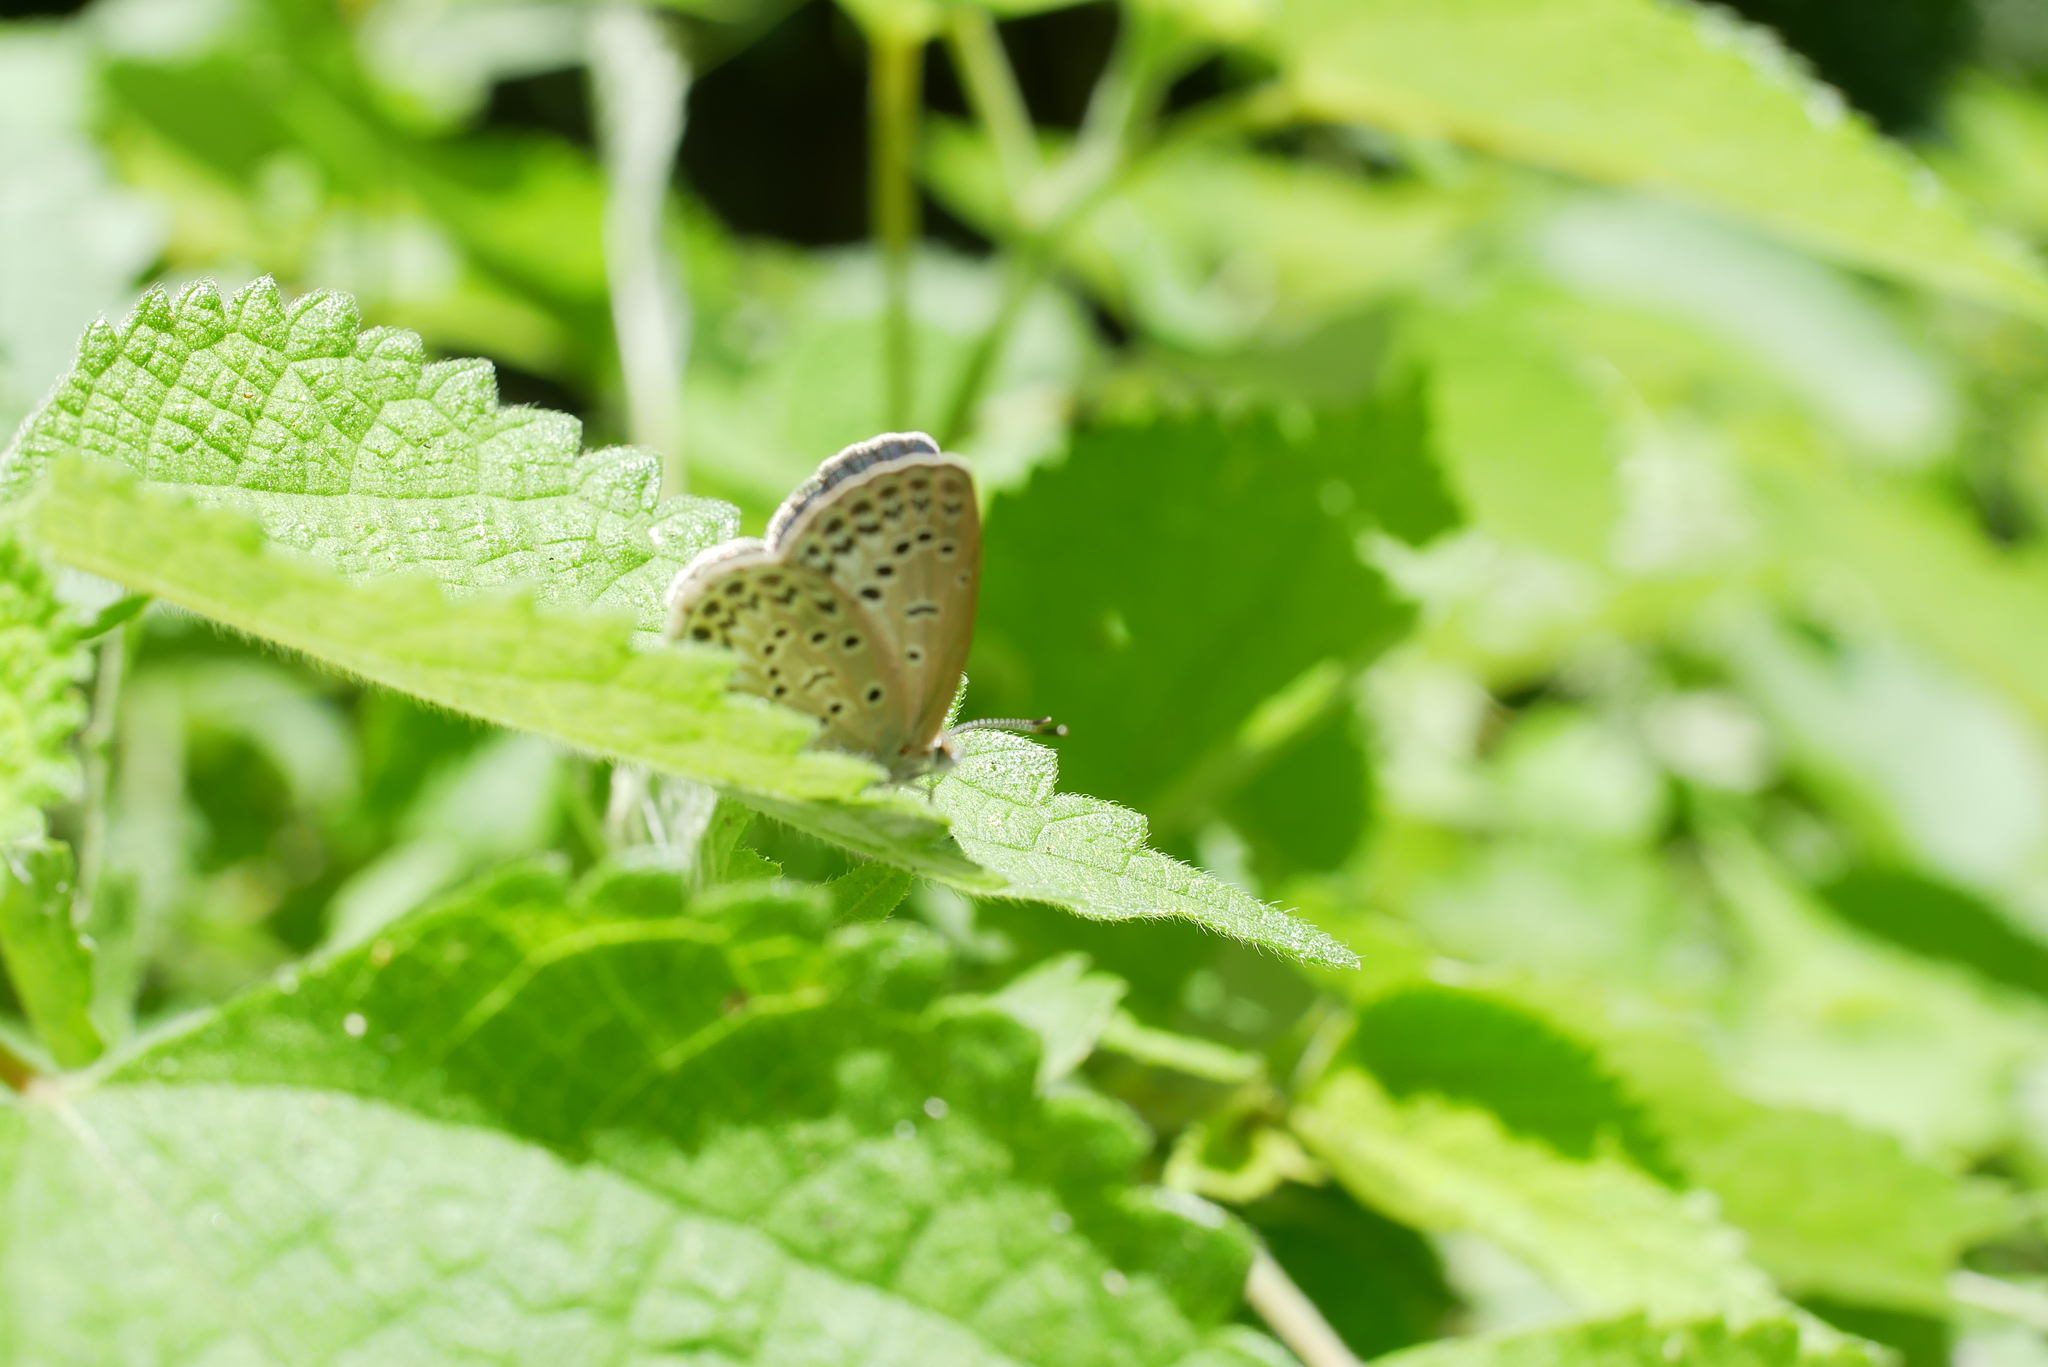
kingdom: Animalia
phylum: Arthropoda
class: Insecta
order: Lepidoptera
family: Lycaenidae
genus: Pseudozizeeria
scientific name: Pseudozizeeria maha
